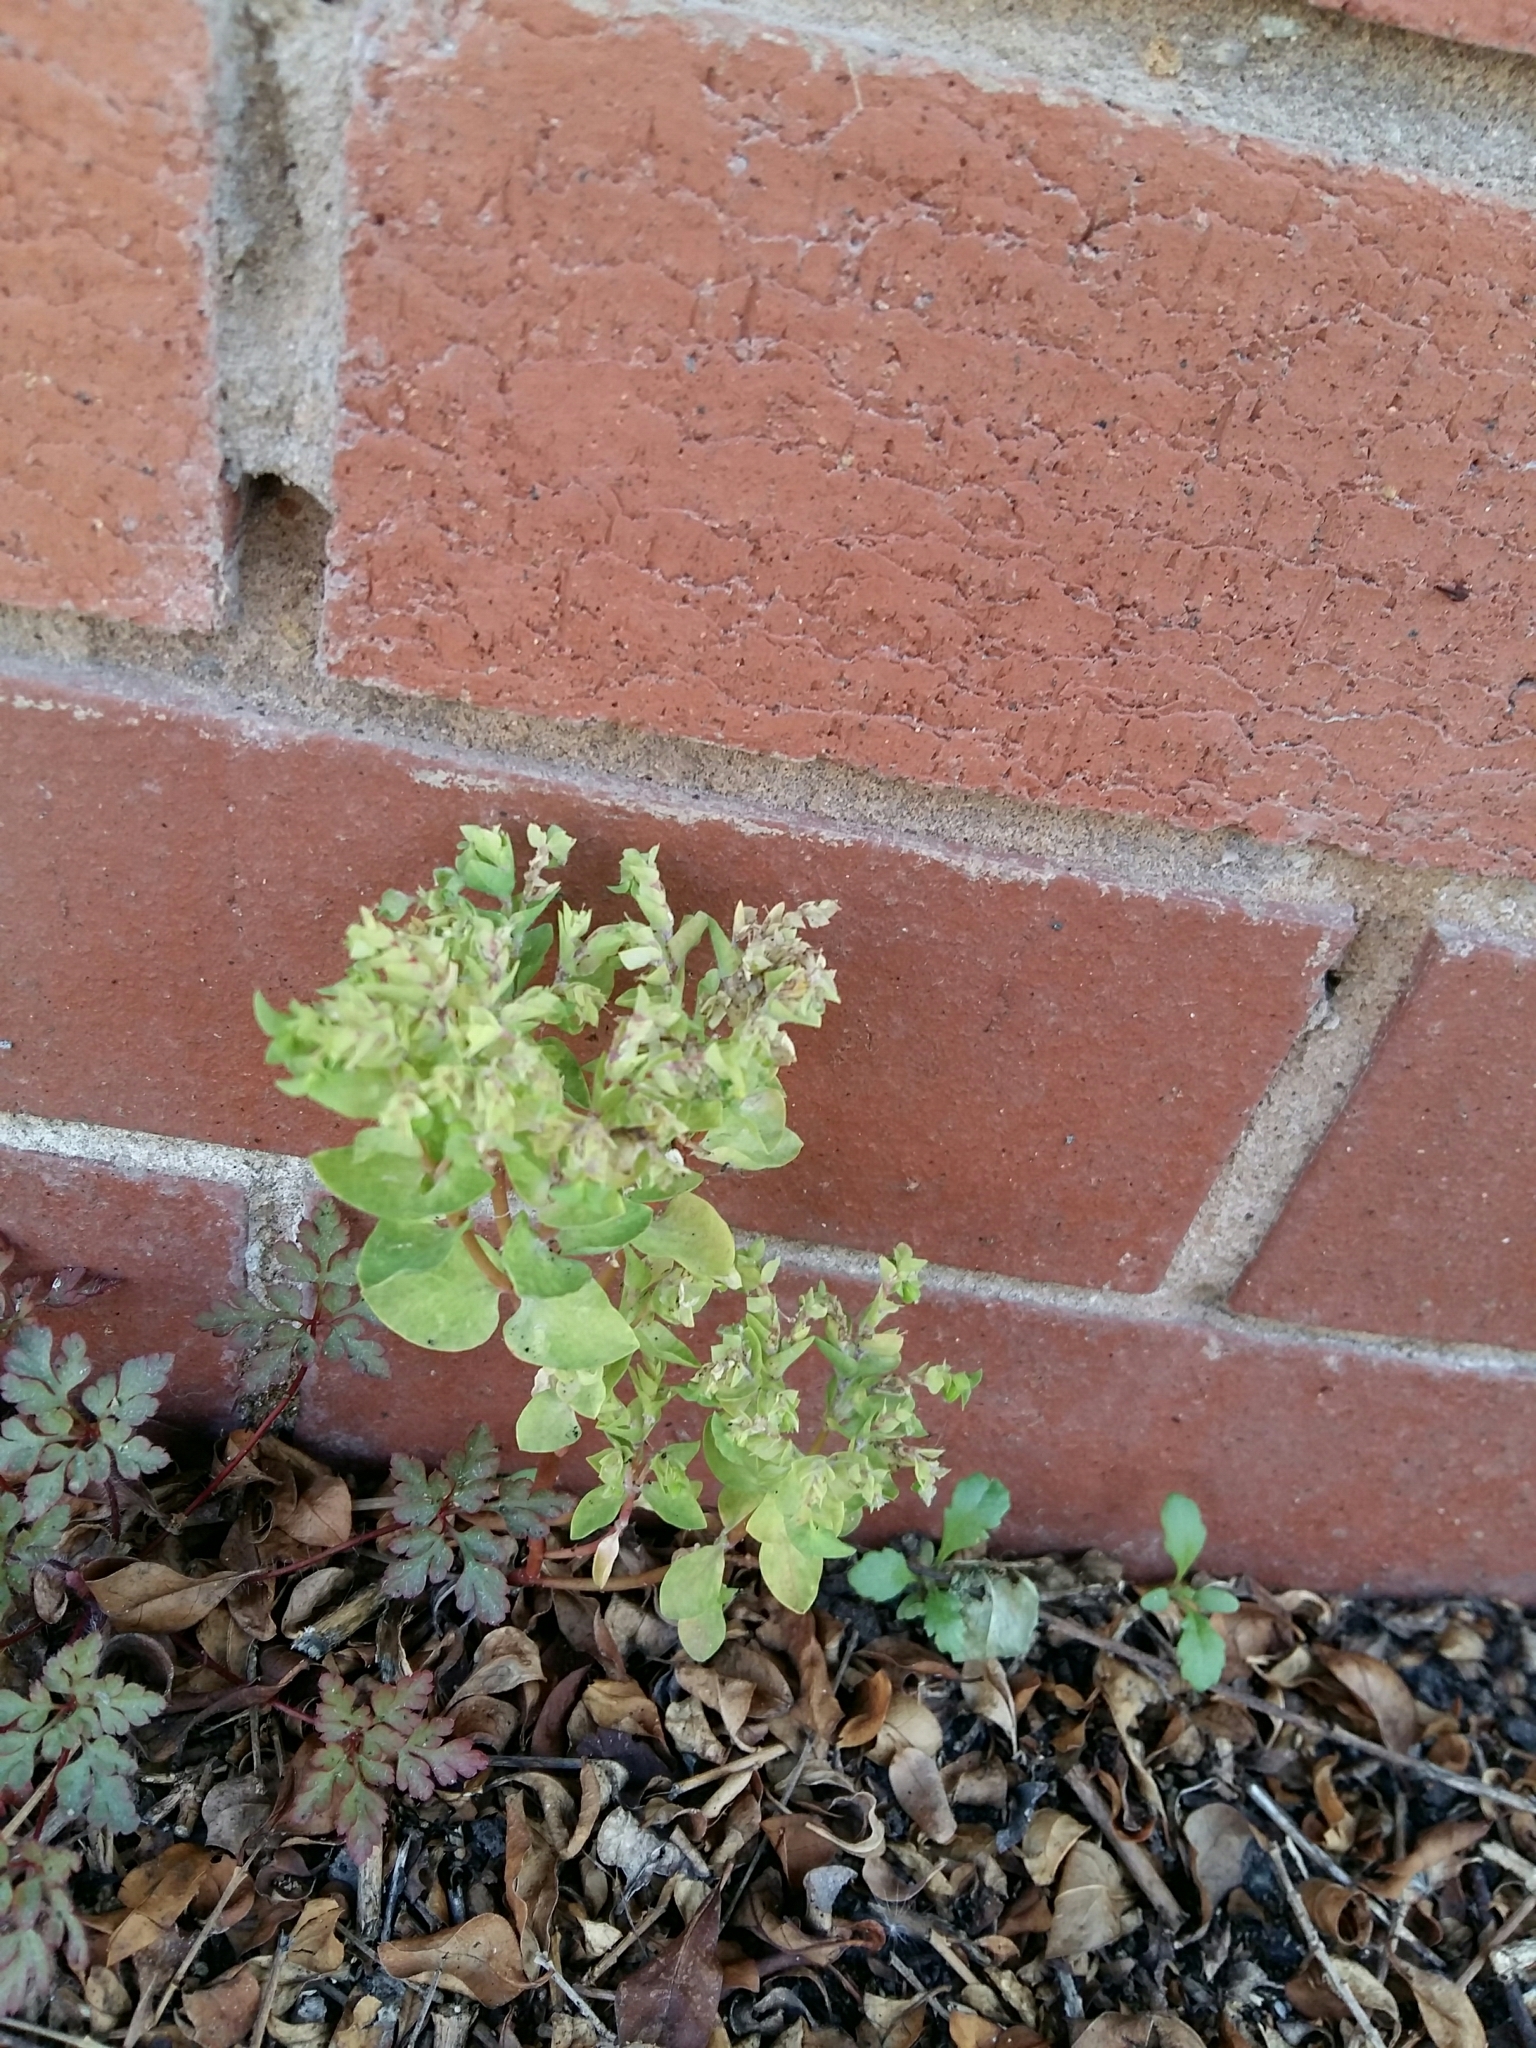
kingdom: Plantae
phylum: Tracheophyta
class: Magnoliopsida
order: Malpighiales
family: Euphorbiaceae
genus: Euphorbia
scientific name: Euphorbia peplus
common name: Petty spurge
